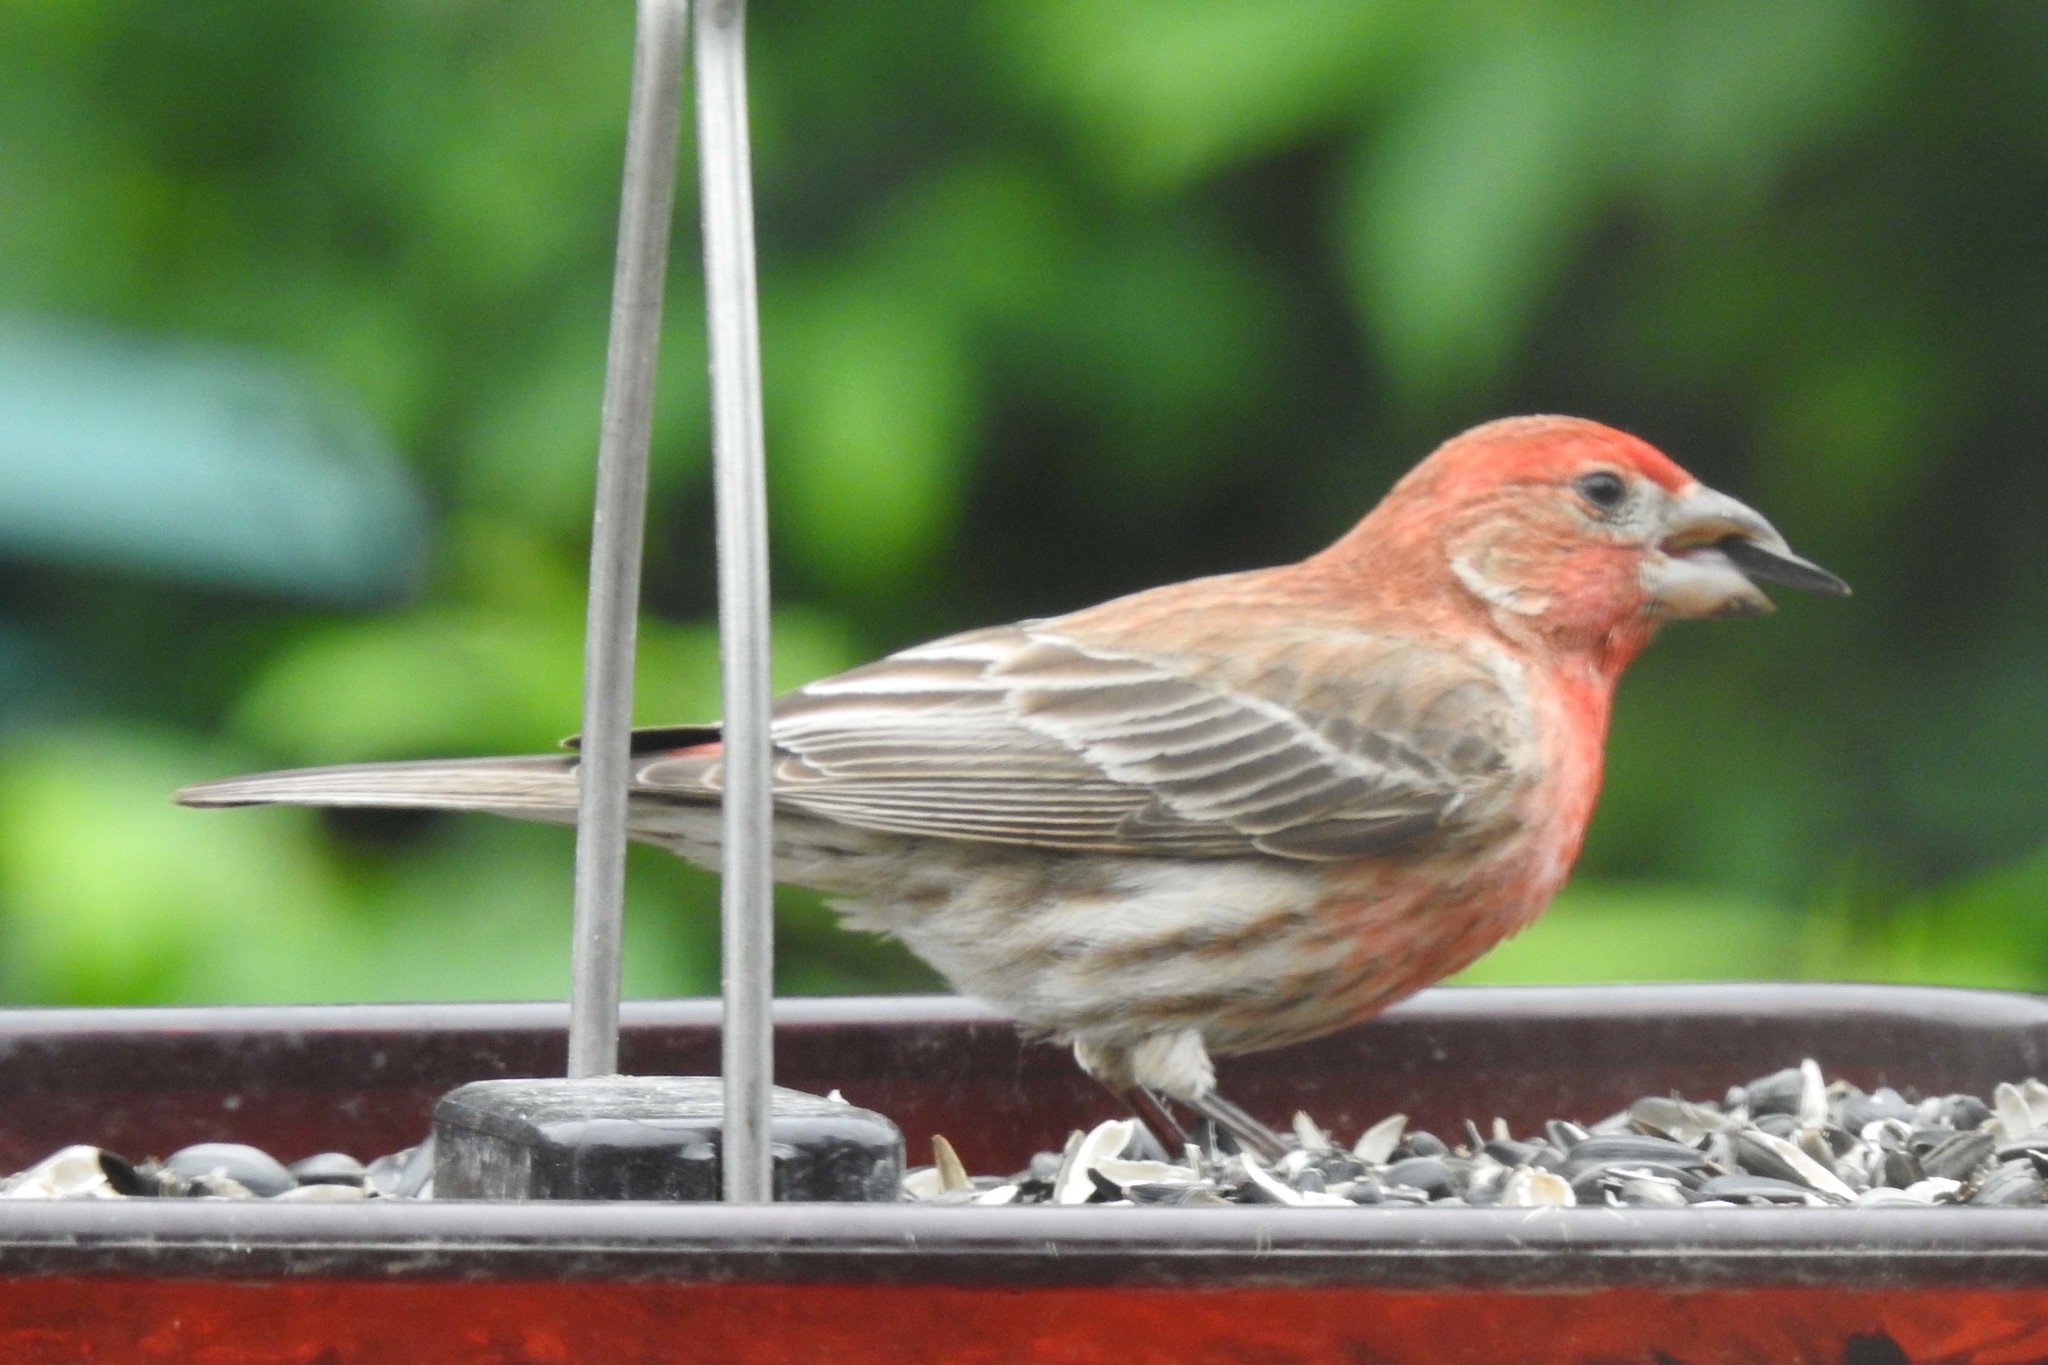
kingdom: Animalia
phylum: Chordata
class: Aves
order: Passeriformes
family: Fringillidae
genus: Haemorhous
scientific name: Haemorhous mexicanus
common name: House finch
